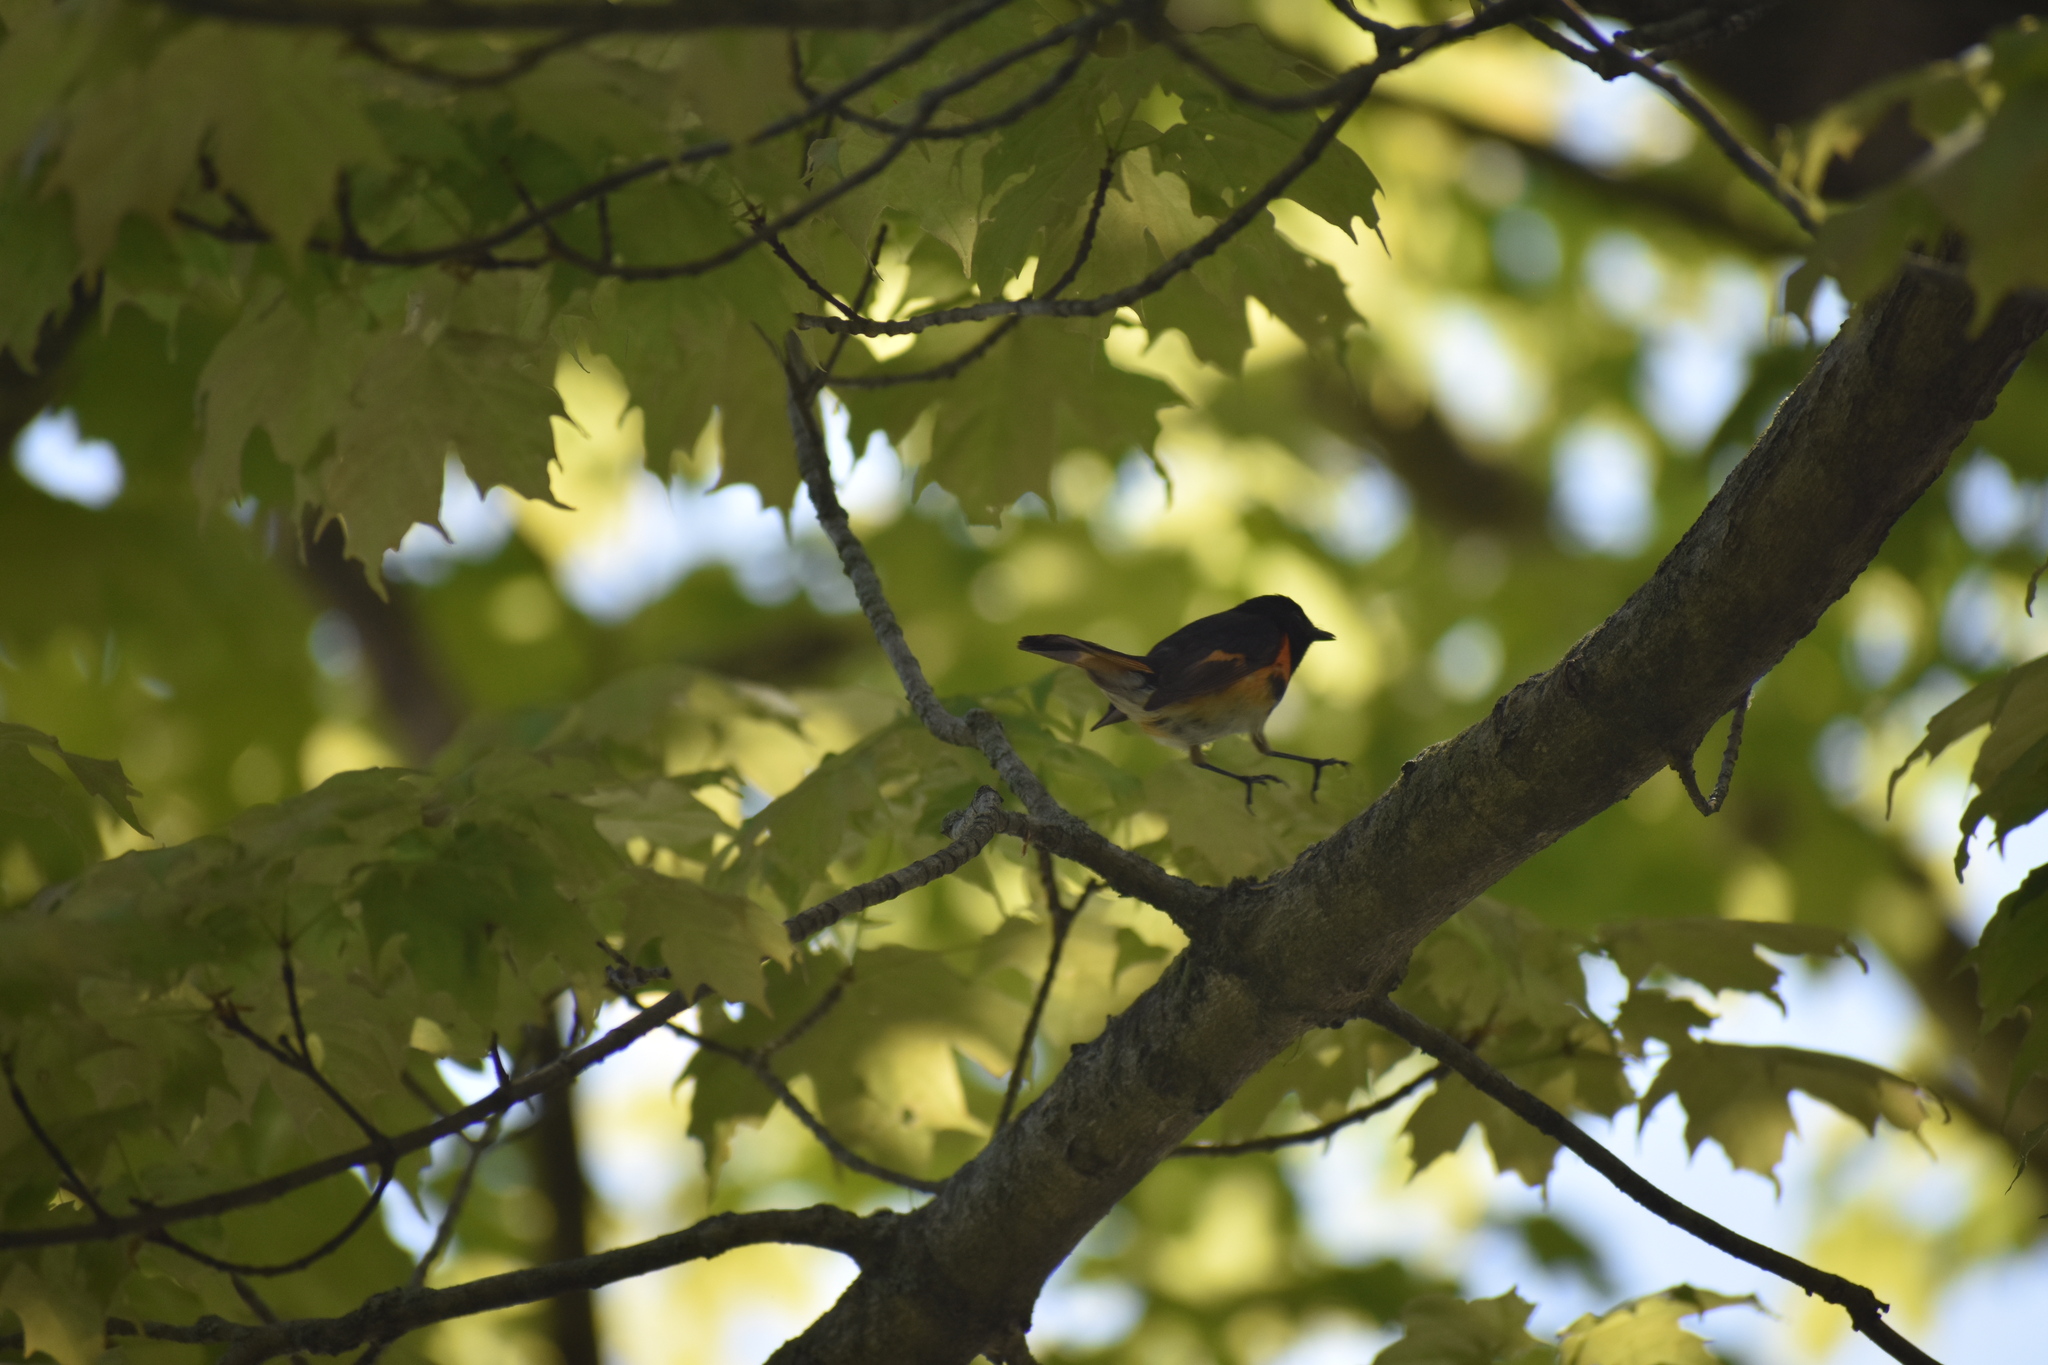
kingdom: Animalia
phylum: Chordata
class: Aves
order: Passeriformes
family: Parulidae
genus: Setophaga
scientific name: Setophaga ruticilla
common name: American redstart
